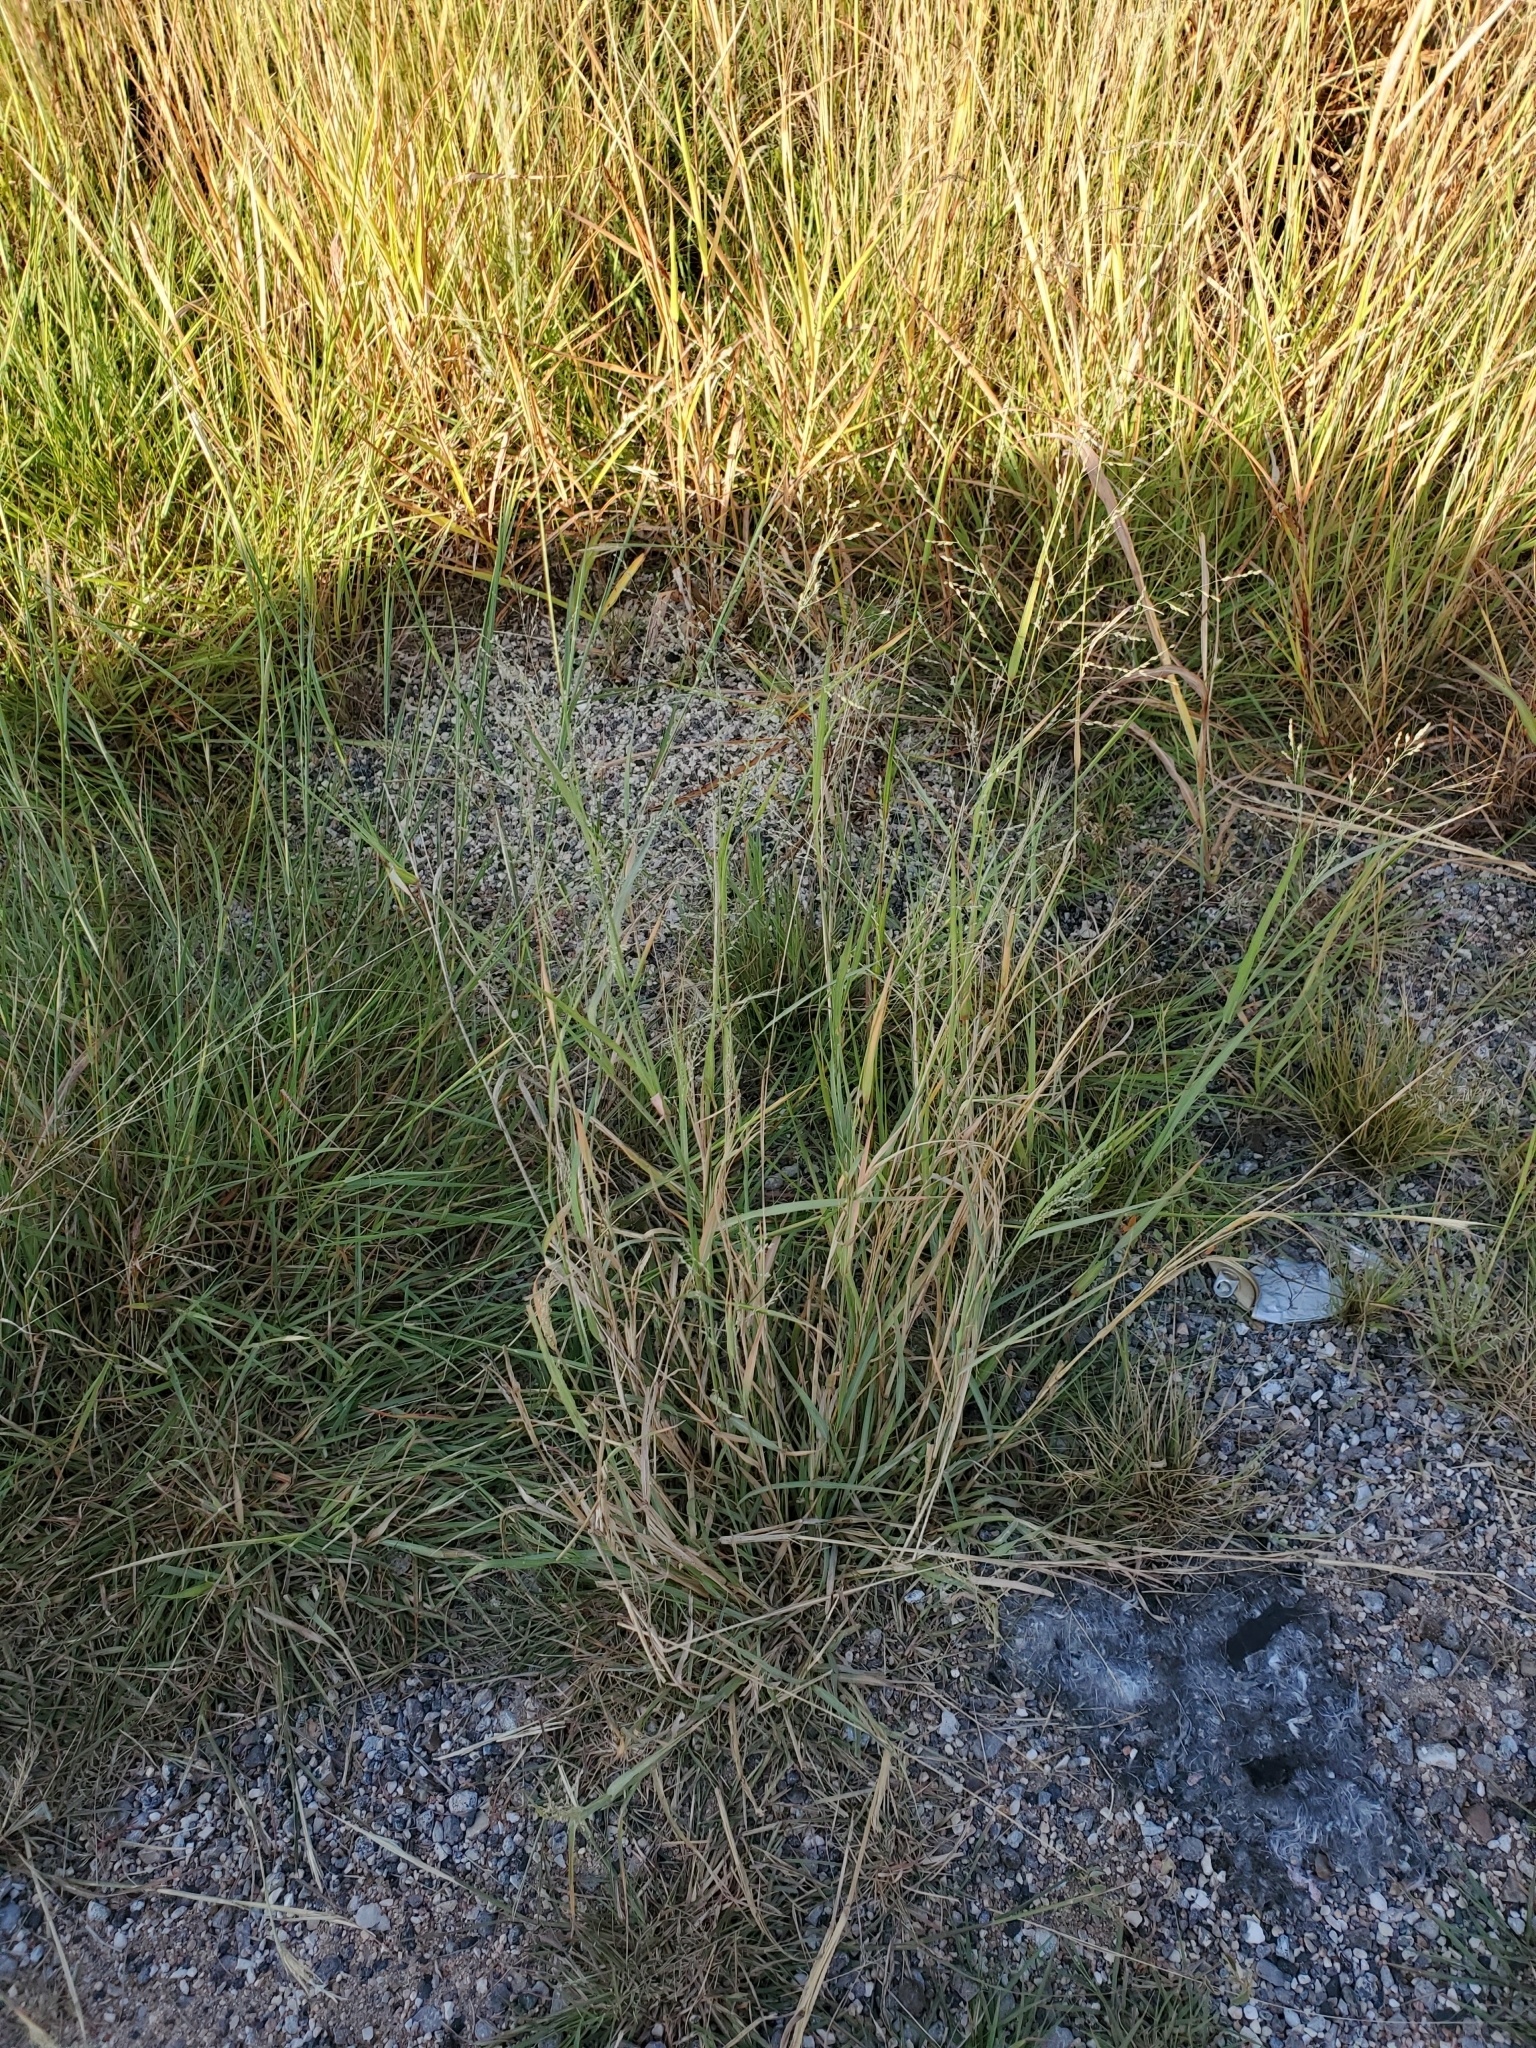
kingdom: Plantae
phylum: Tracheophyta
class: Liliopsida
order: Poales
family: Poaceae
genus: Panicum
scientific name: Panicum coloratum
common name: Kleingrass
